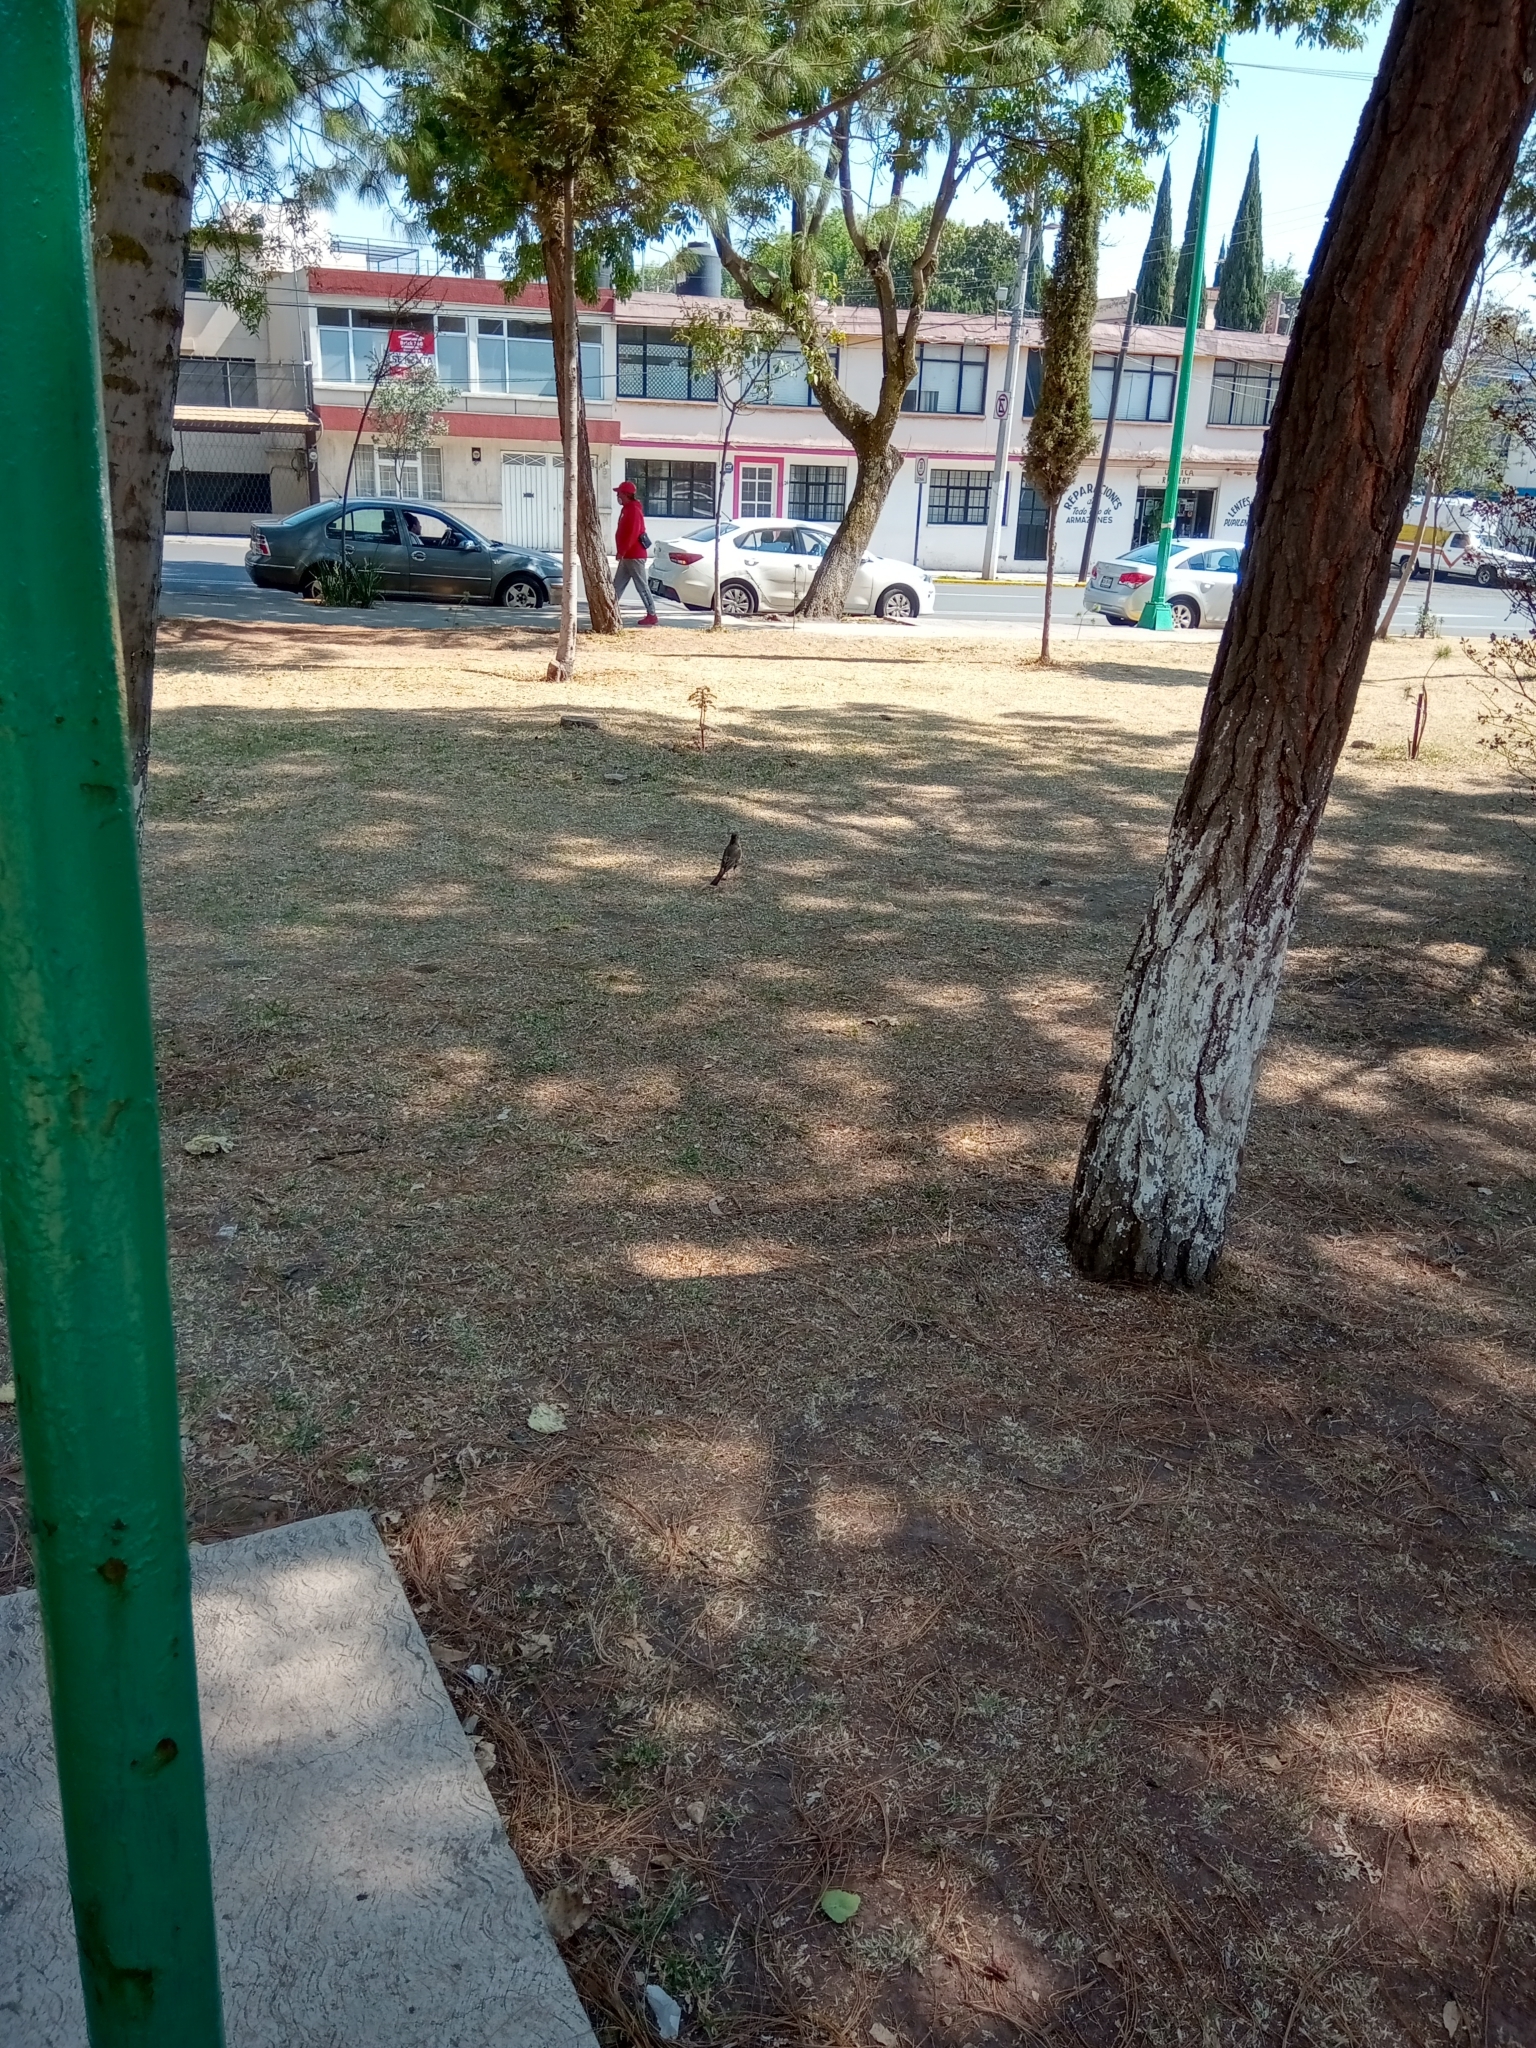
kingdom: Animalia
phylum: Chordata
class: Aves
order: Passeriformes
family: Turdidae
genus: Turdus
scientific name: Turdus migratorius
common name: American robin
